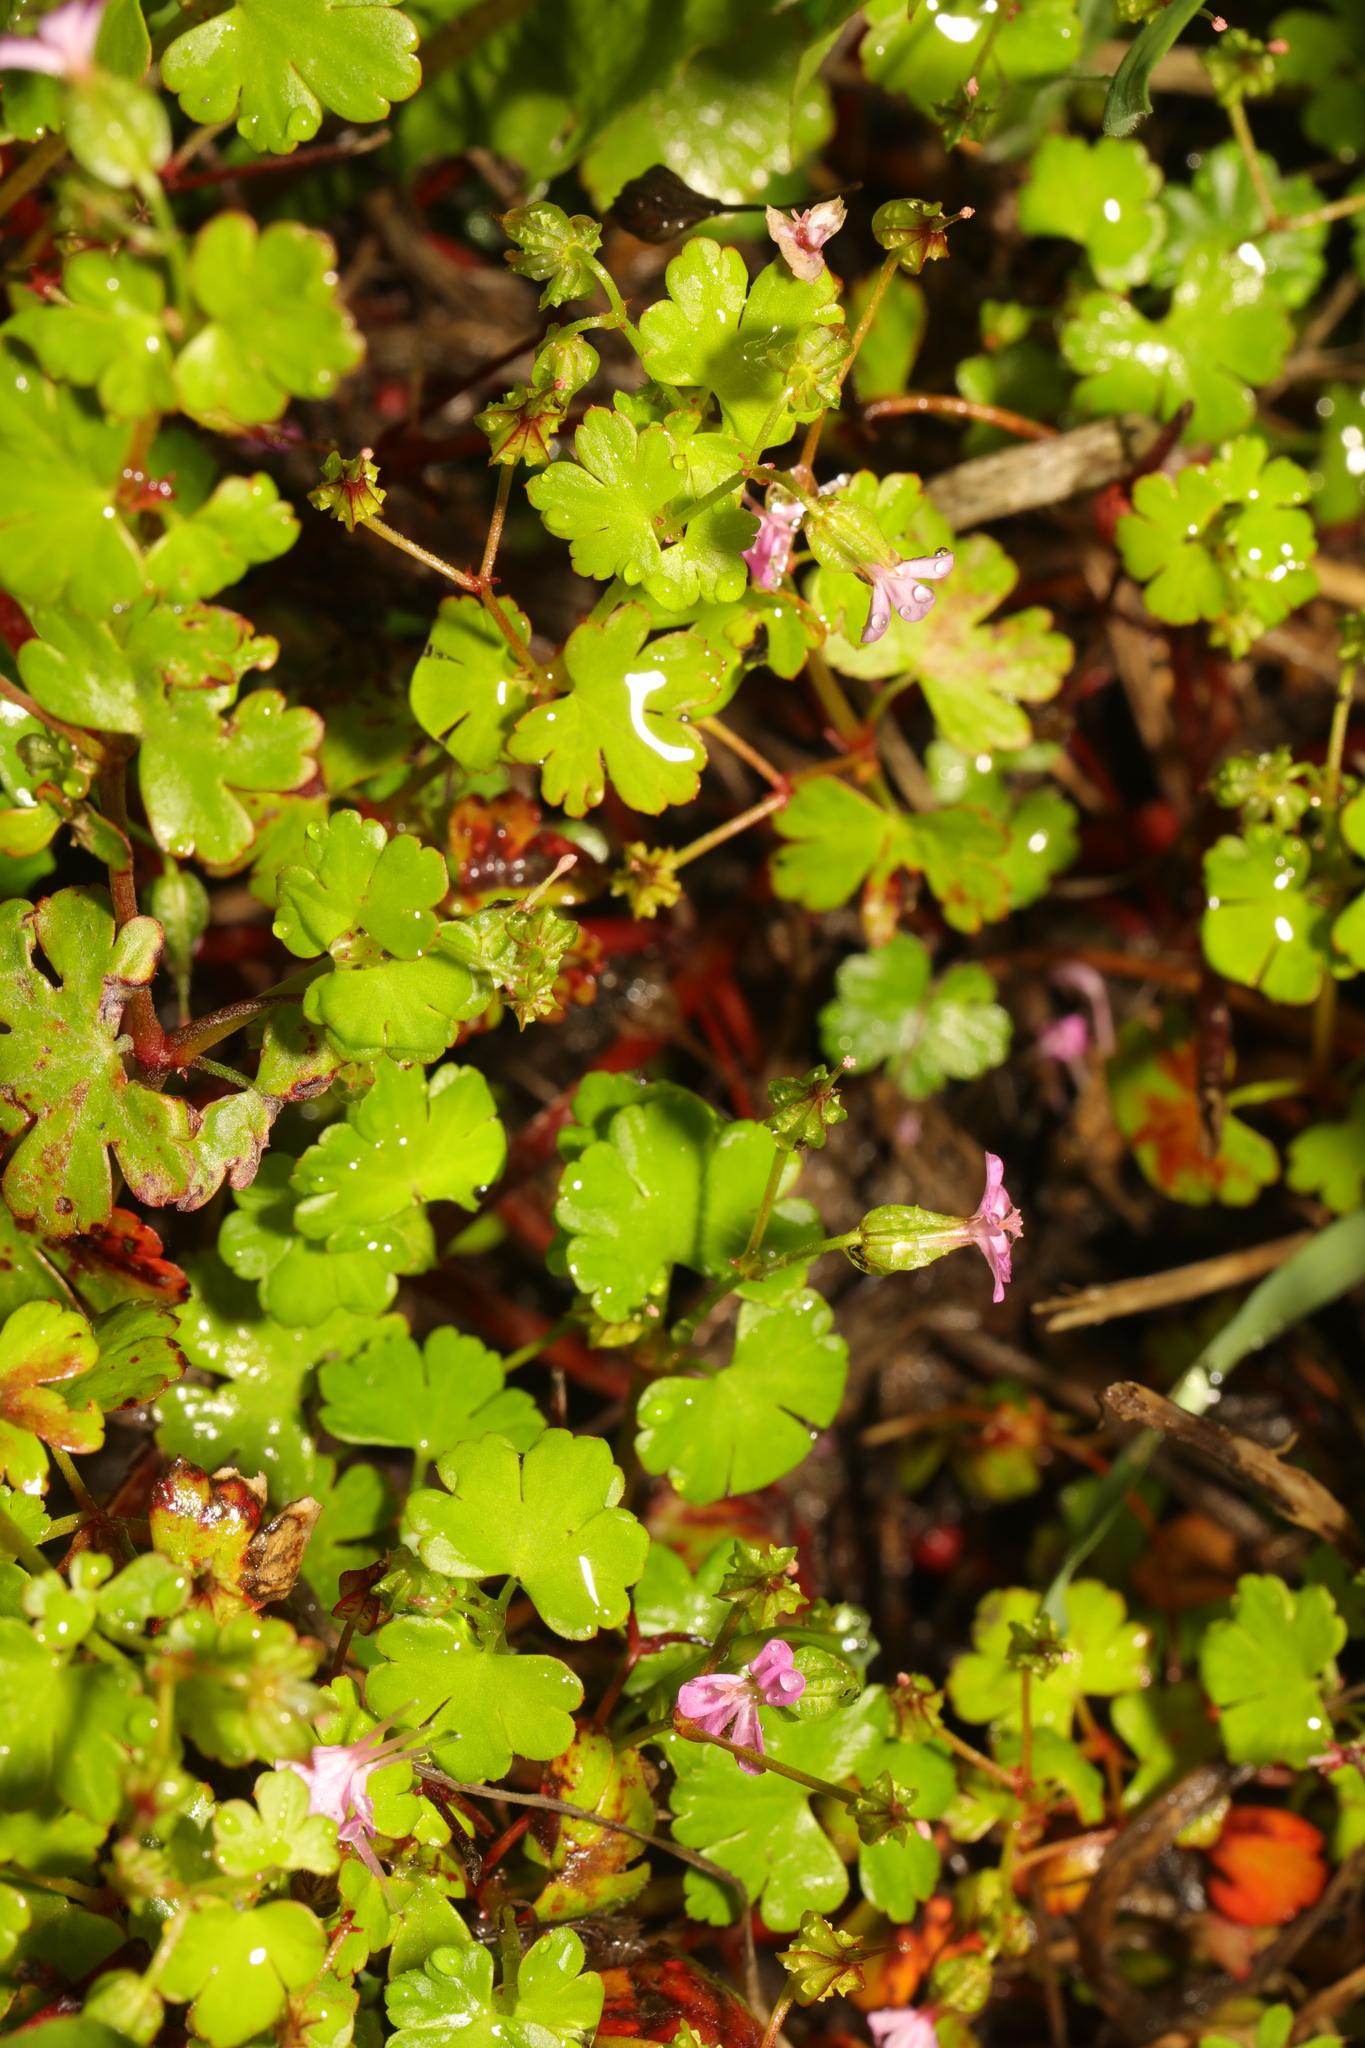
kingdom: Plantae
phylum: Tracheophyta
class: Magnoliopsida
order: Geraniales
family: Geraniaceae
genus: Geranium
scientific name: Geranium lucidum
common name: Shining crane's-bill
